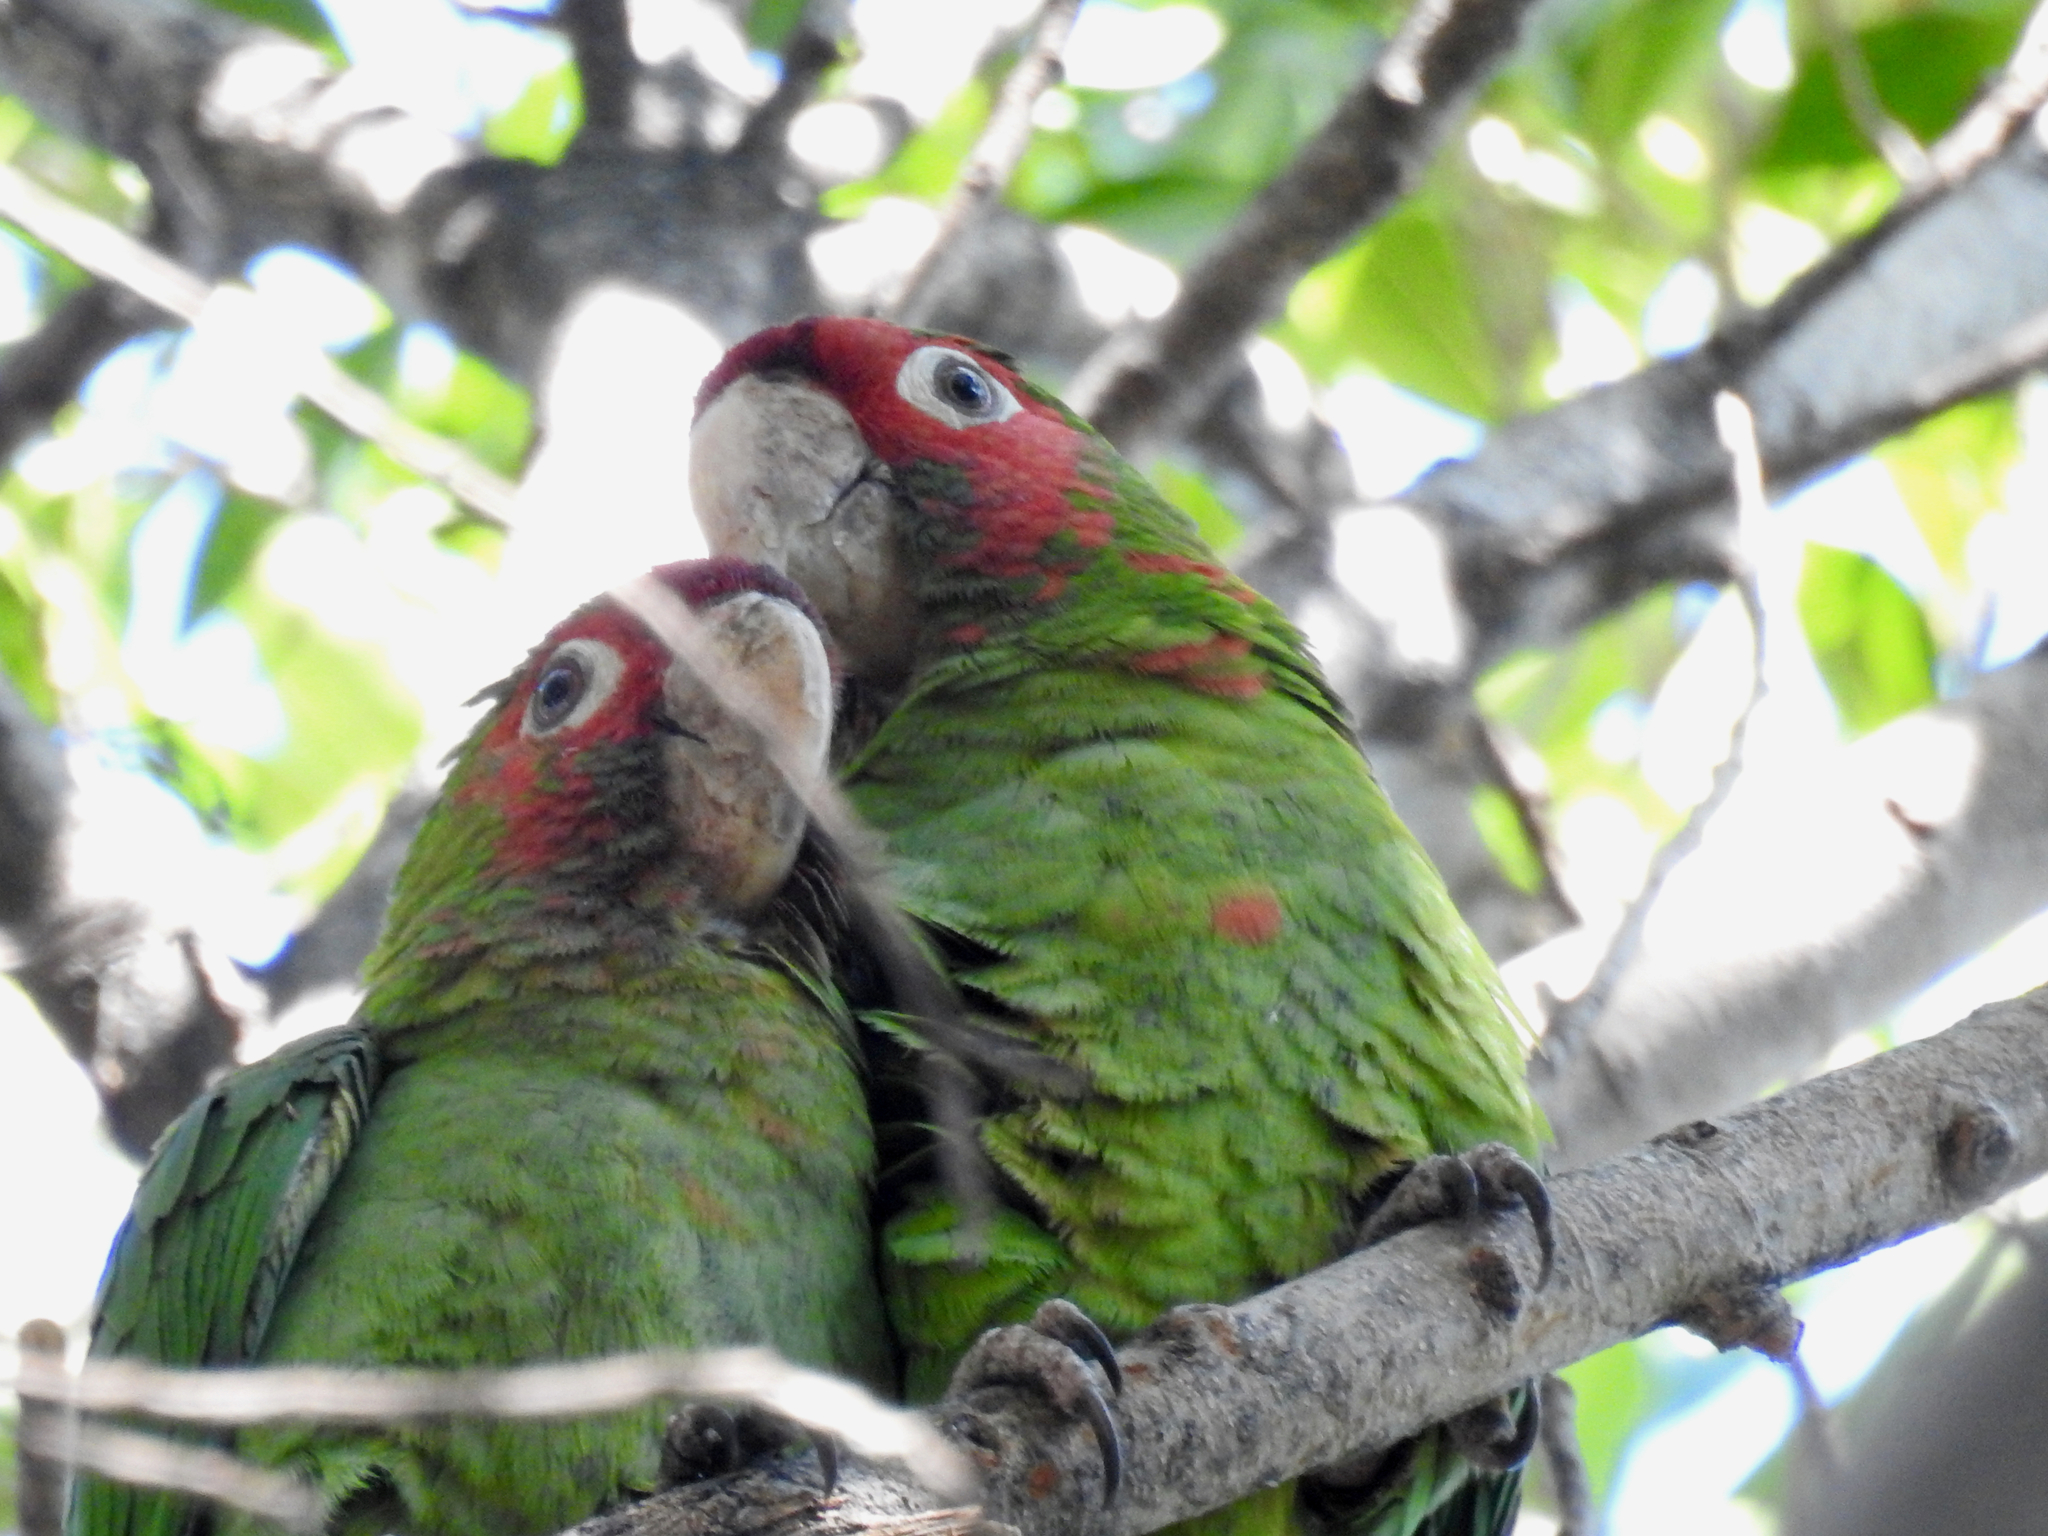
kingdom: Animalia
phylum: Chordata
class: Aves
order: Psittaciformes
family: Psittacidae
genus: Aratinga
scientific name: Aratinga mitrata
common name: Mitred parakeet
